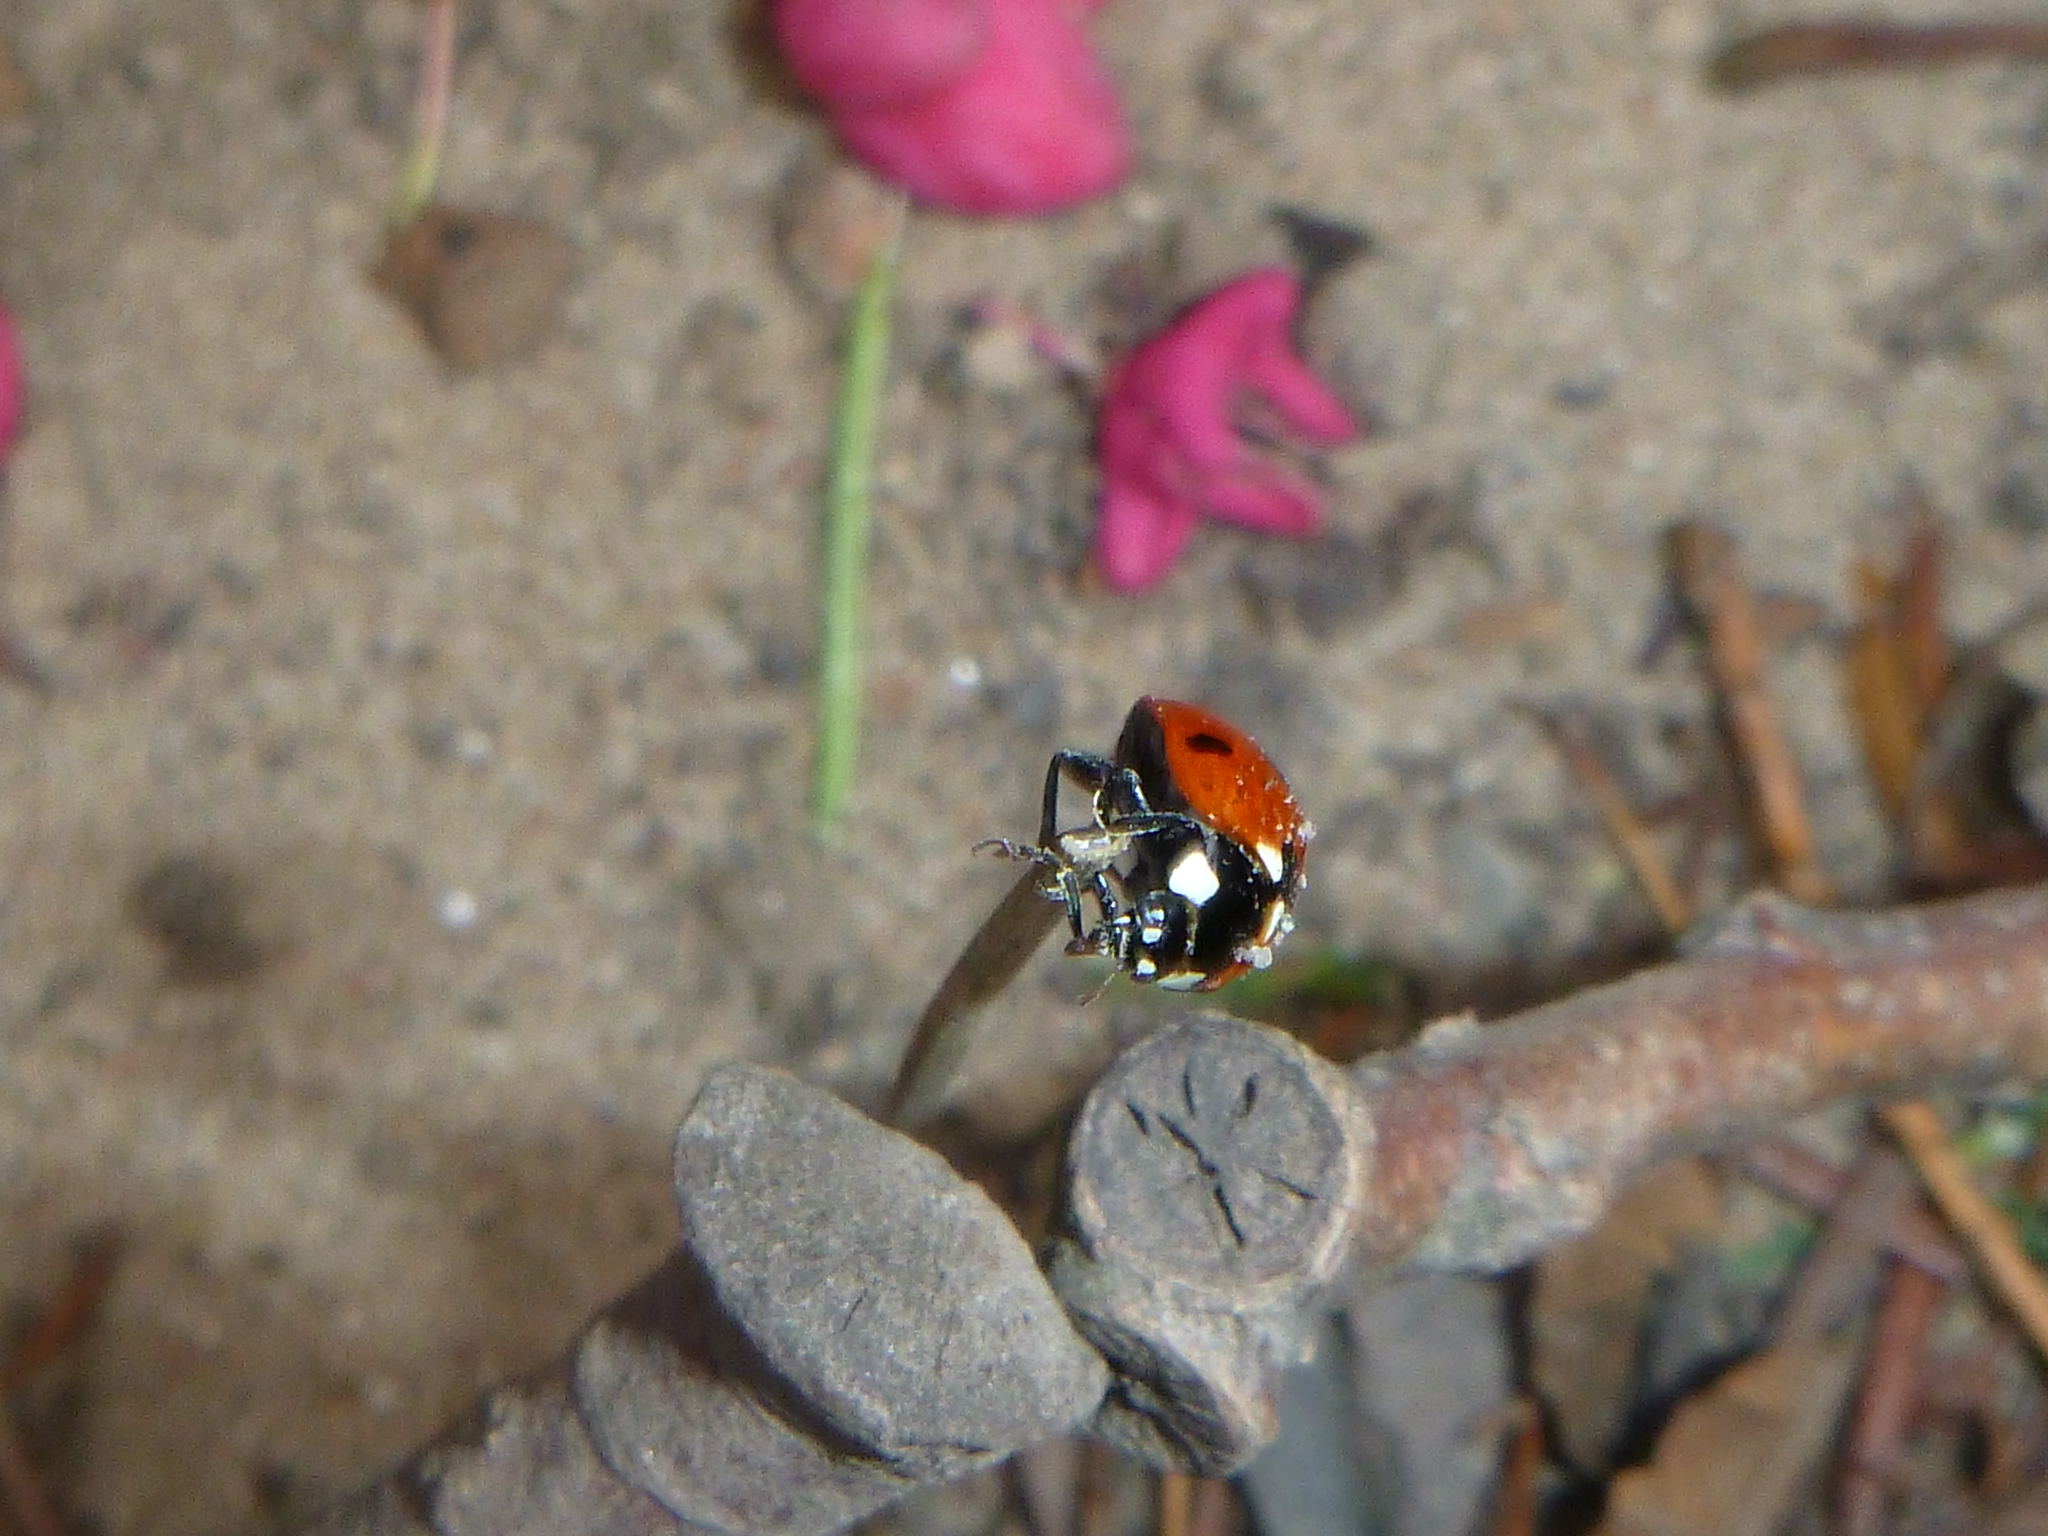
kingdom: Animalia
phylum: Arthropoda
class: Insecta
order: Coleoptera
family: Coccinellidae
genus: Coccinella
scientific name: Coccinella septempunctata
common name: Sevenspotted lady beetle
